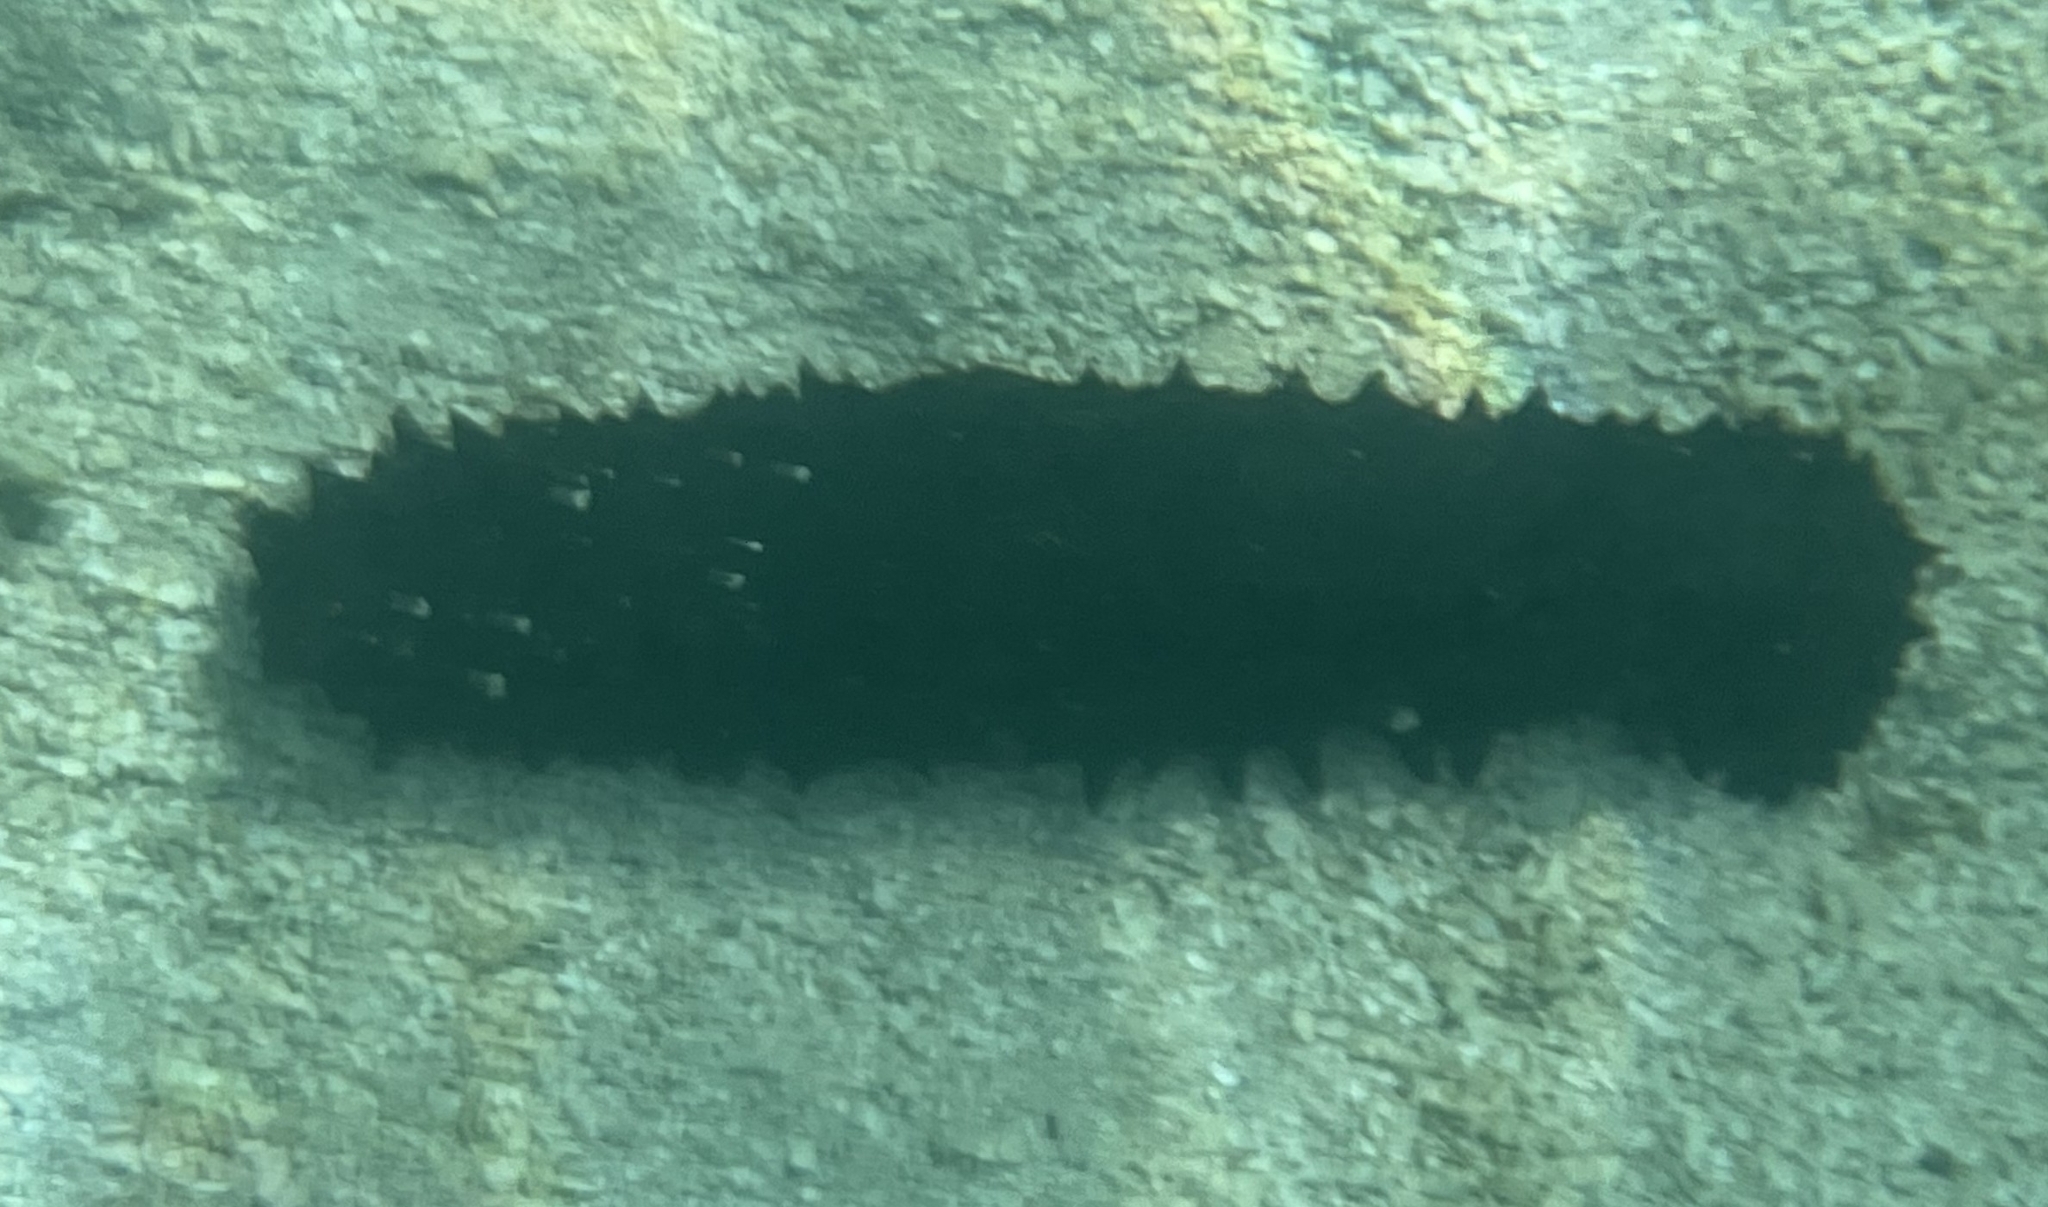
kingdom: Animalia
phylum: Echinodermata
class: Holothuroidea
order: Synallactida
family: Stichopodidae
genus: Stichopus
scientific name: Stichopus chloronotus
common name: Greenfish
